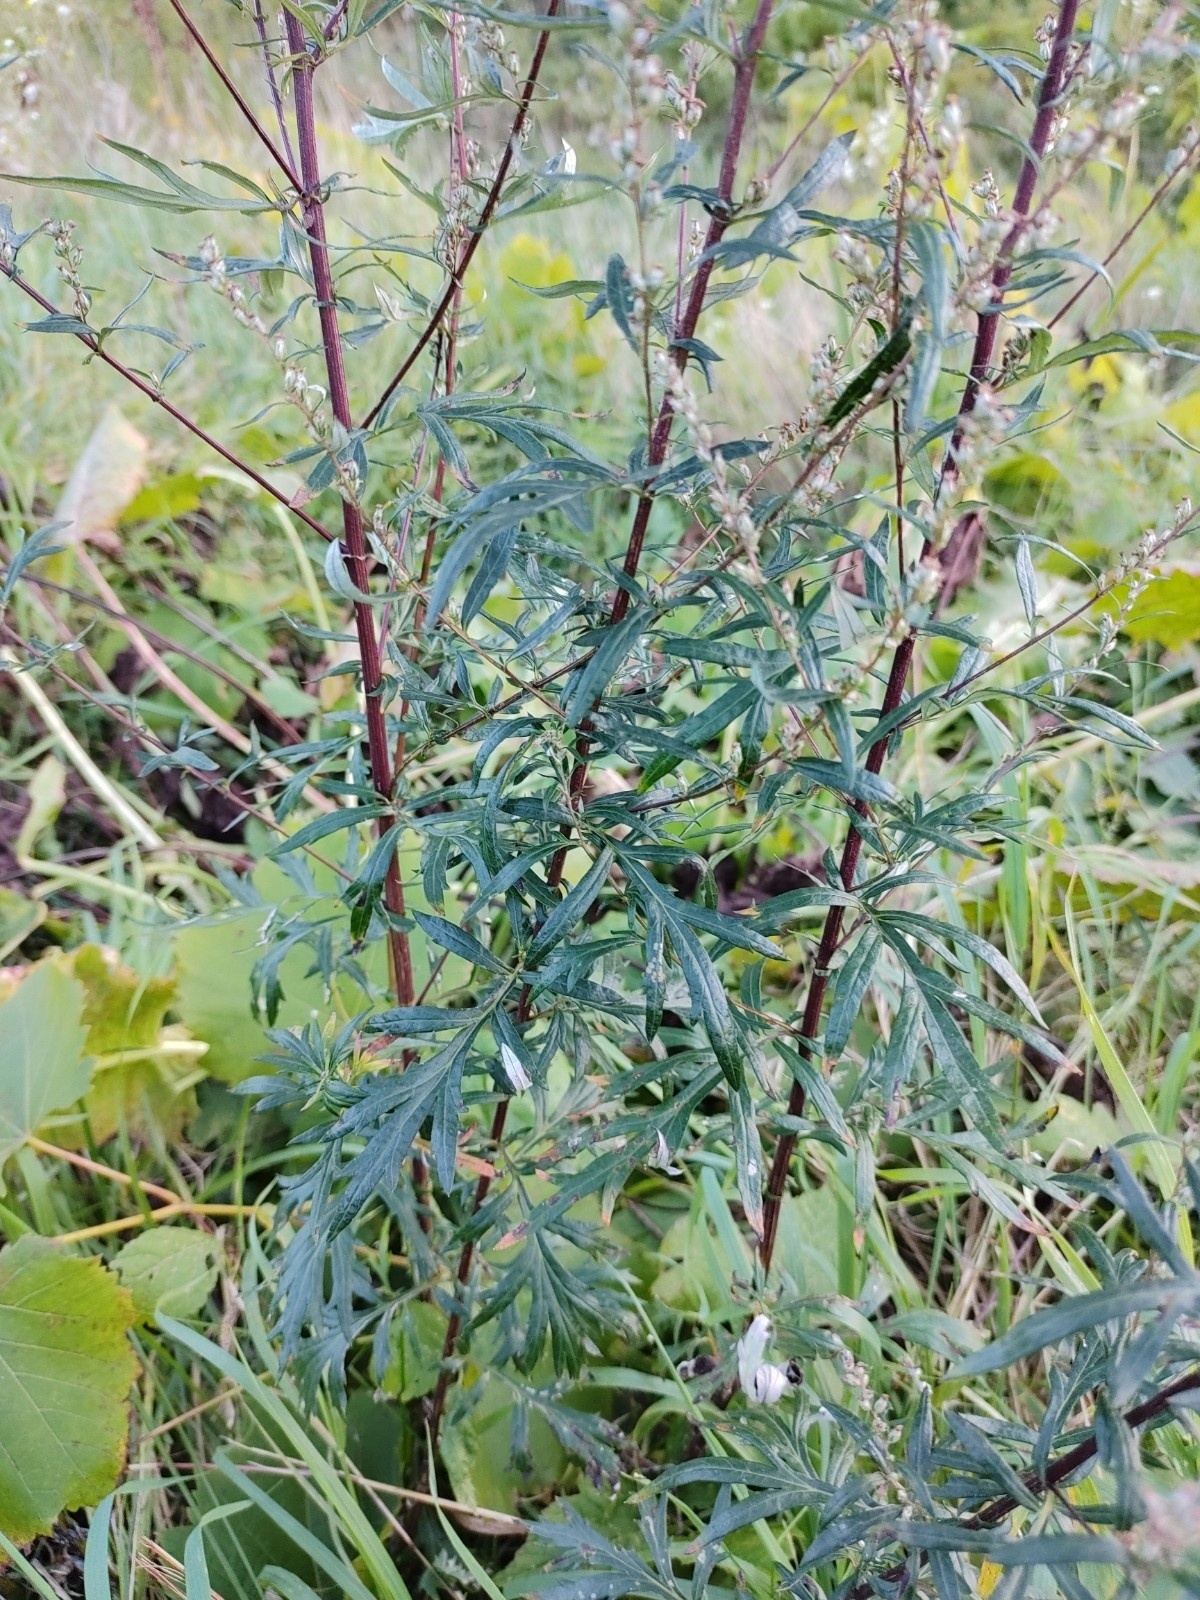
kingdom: Plantae
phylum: Tracheophyta
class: Magnoliopsida
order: Asterales
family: Asteraceae
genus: Artemisia
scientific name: Artemisia vulgaris
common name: Mugwort
